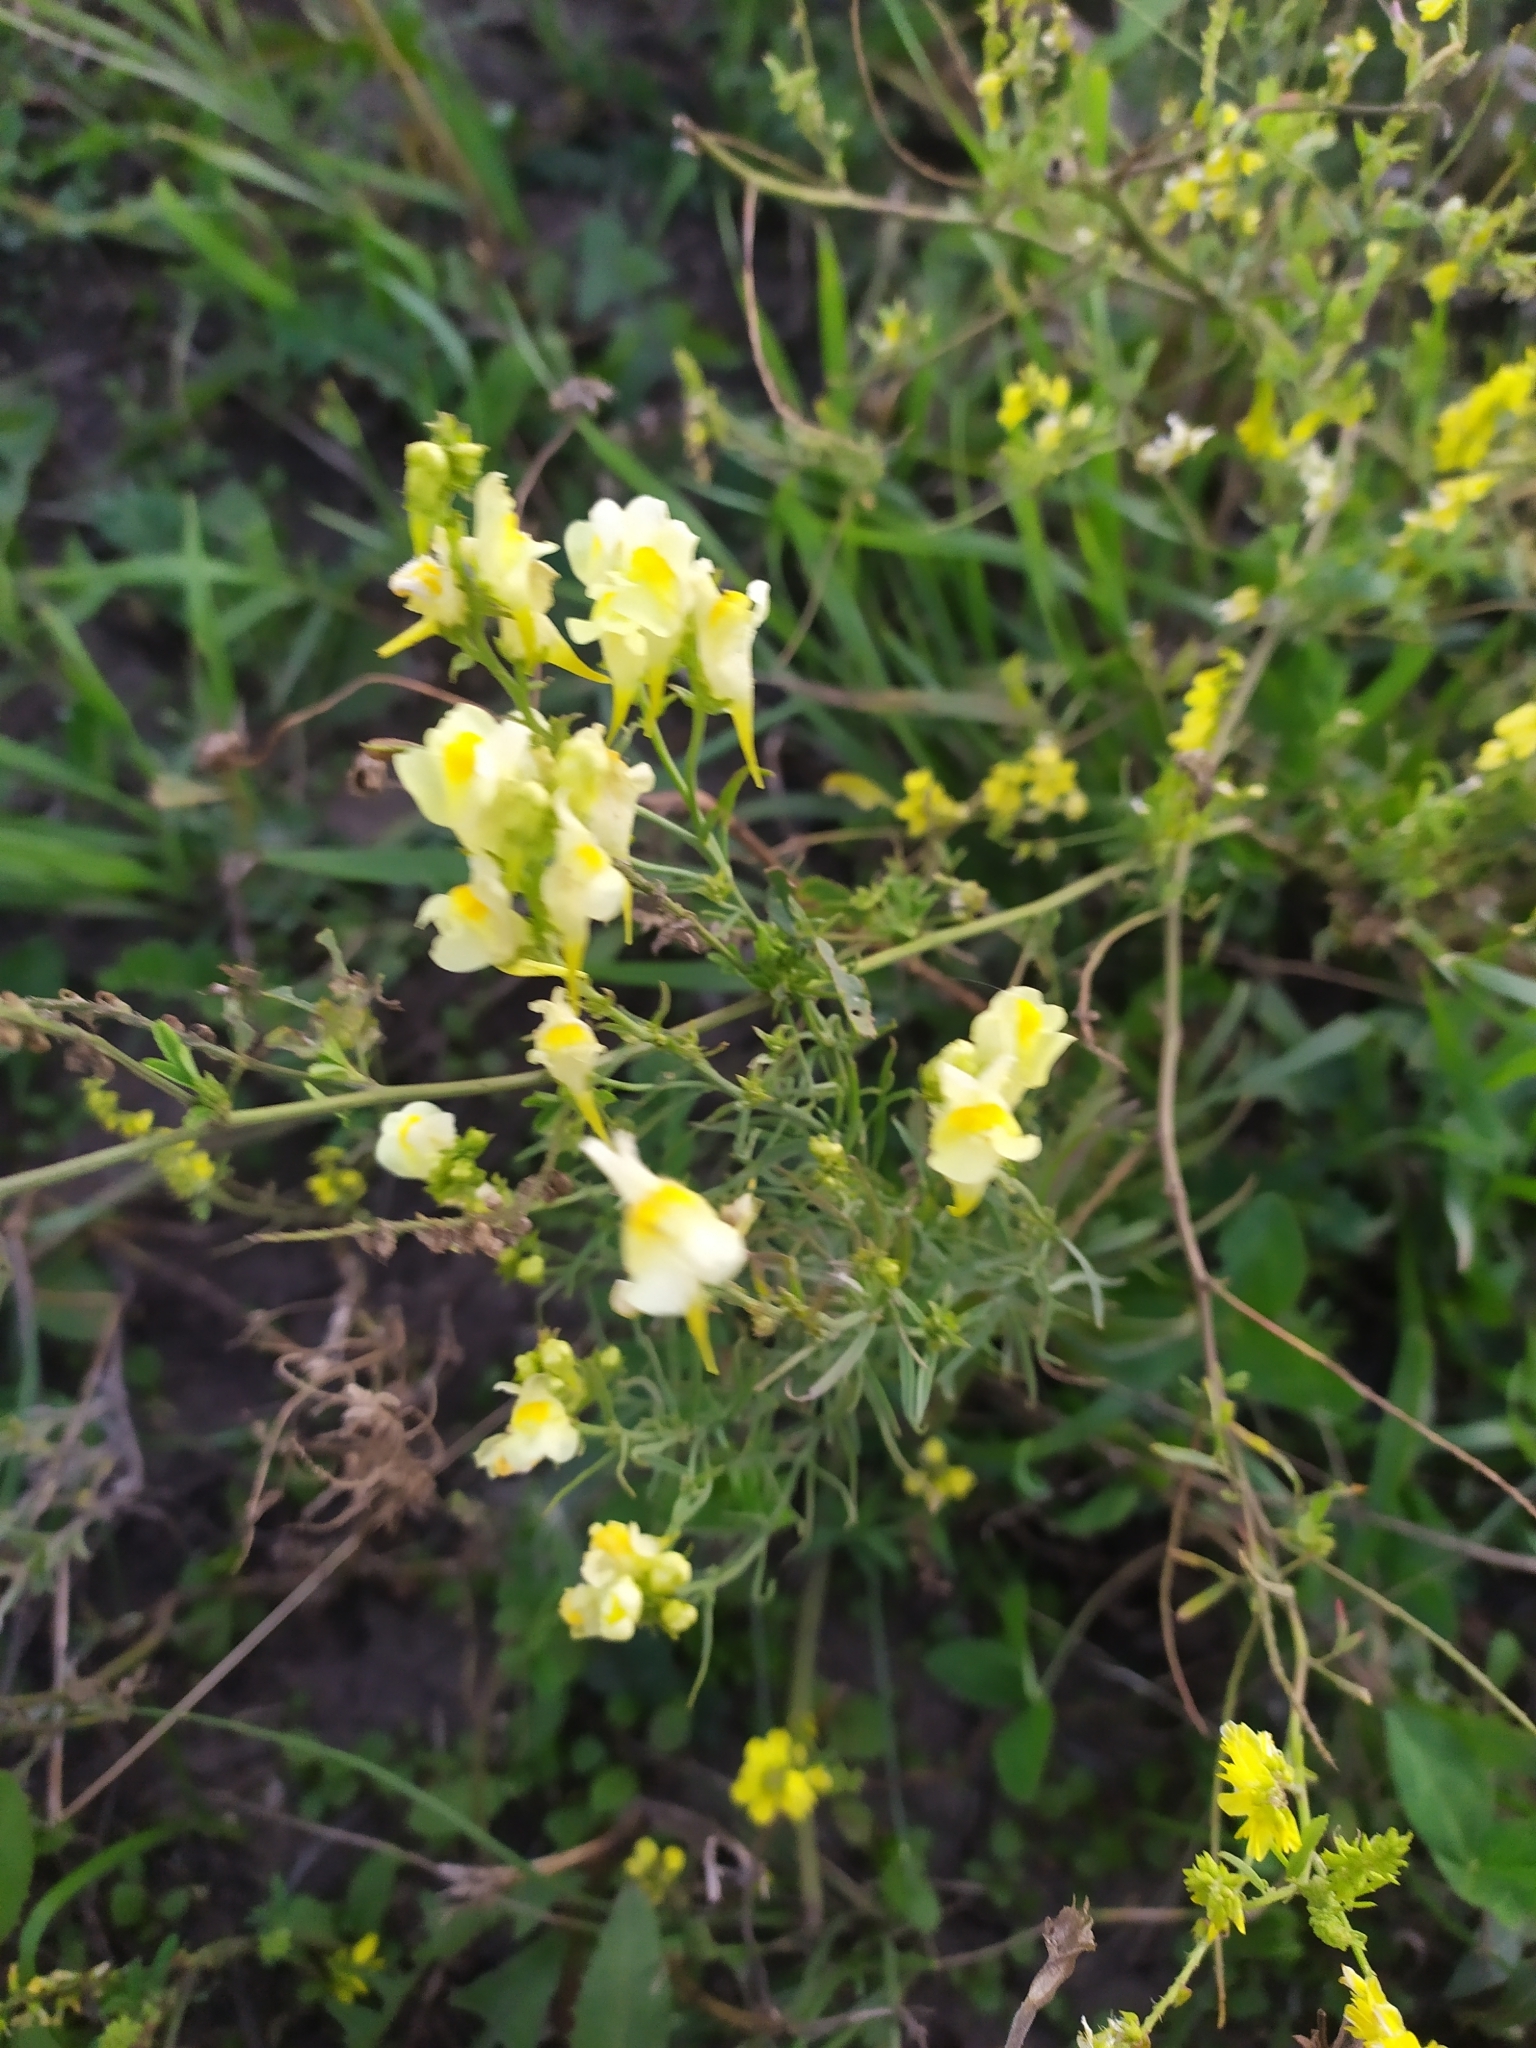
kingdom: Plantae
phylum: Tracheophyta
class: Magnoliopsida
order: Lamiales
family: Plantaginaceae
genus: Linaria
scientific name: Linaria vulgaris
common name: Butter and eggs
